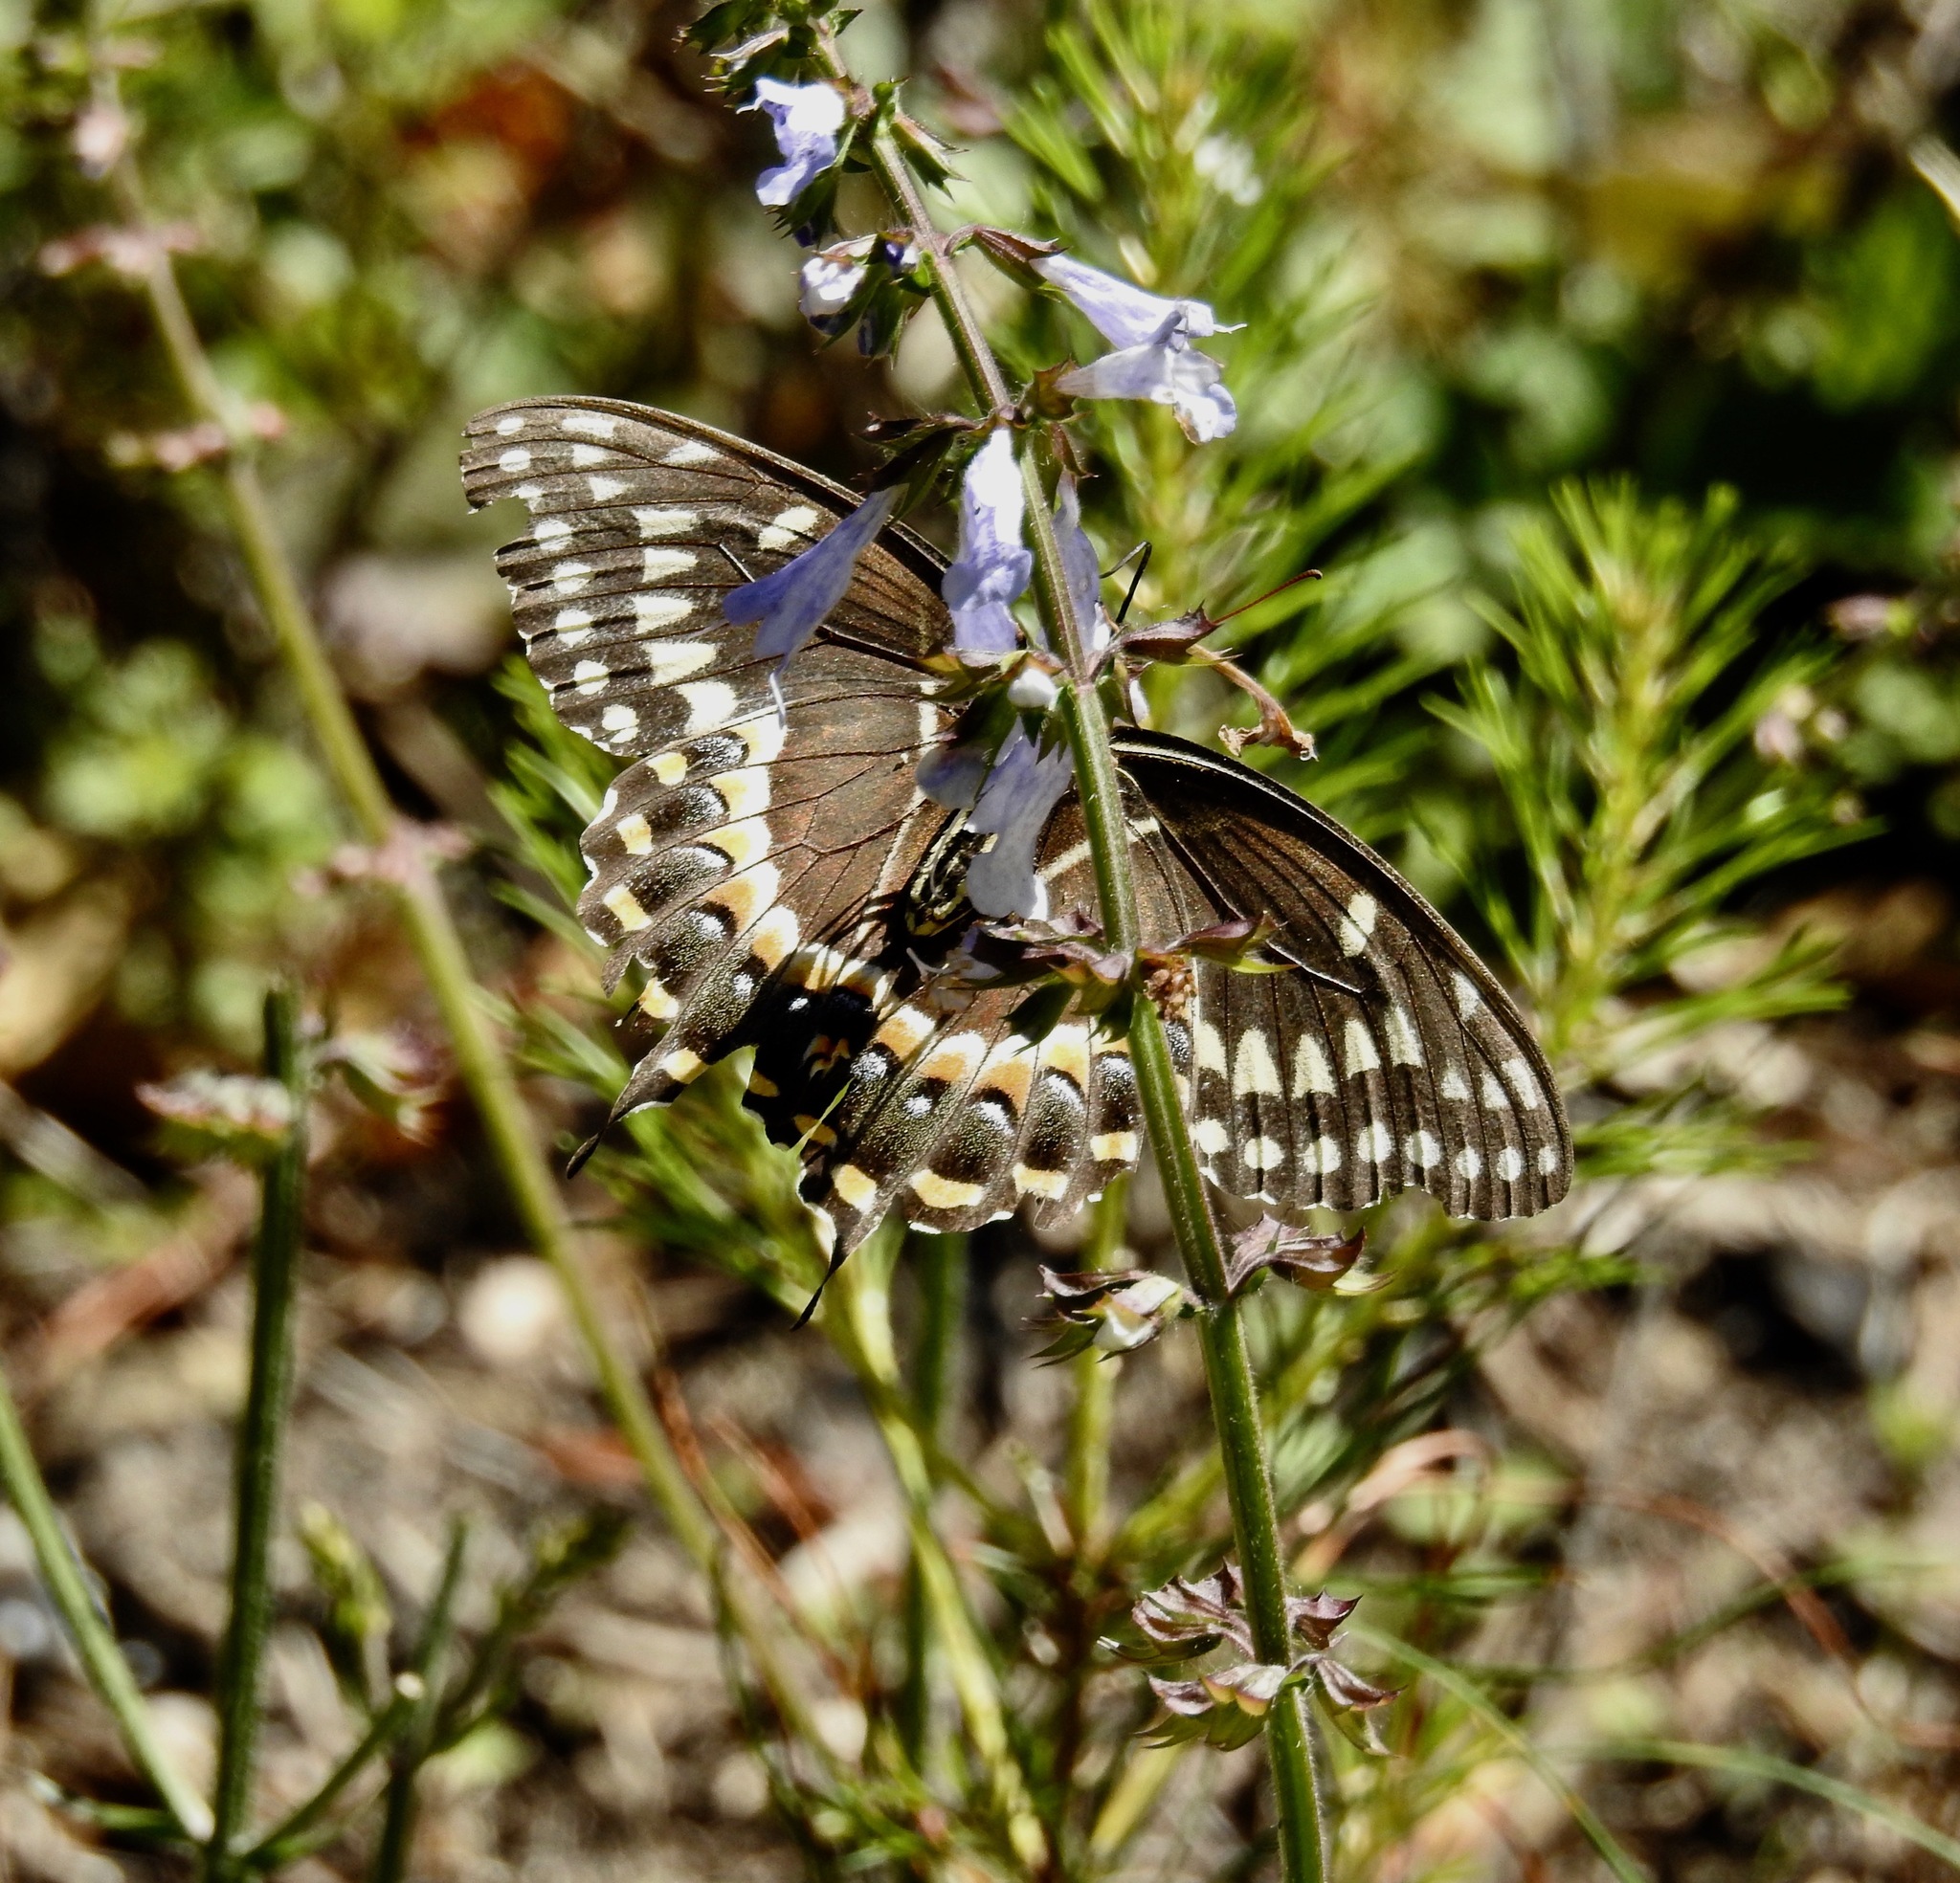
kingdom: Animalia
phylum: Arthropoda
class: Insecta
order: Lepidoptera
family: Papilionidae
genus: Papilio
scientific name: Papilio palamedes
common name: Palamedes swallowtail
